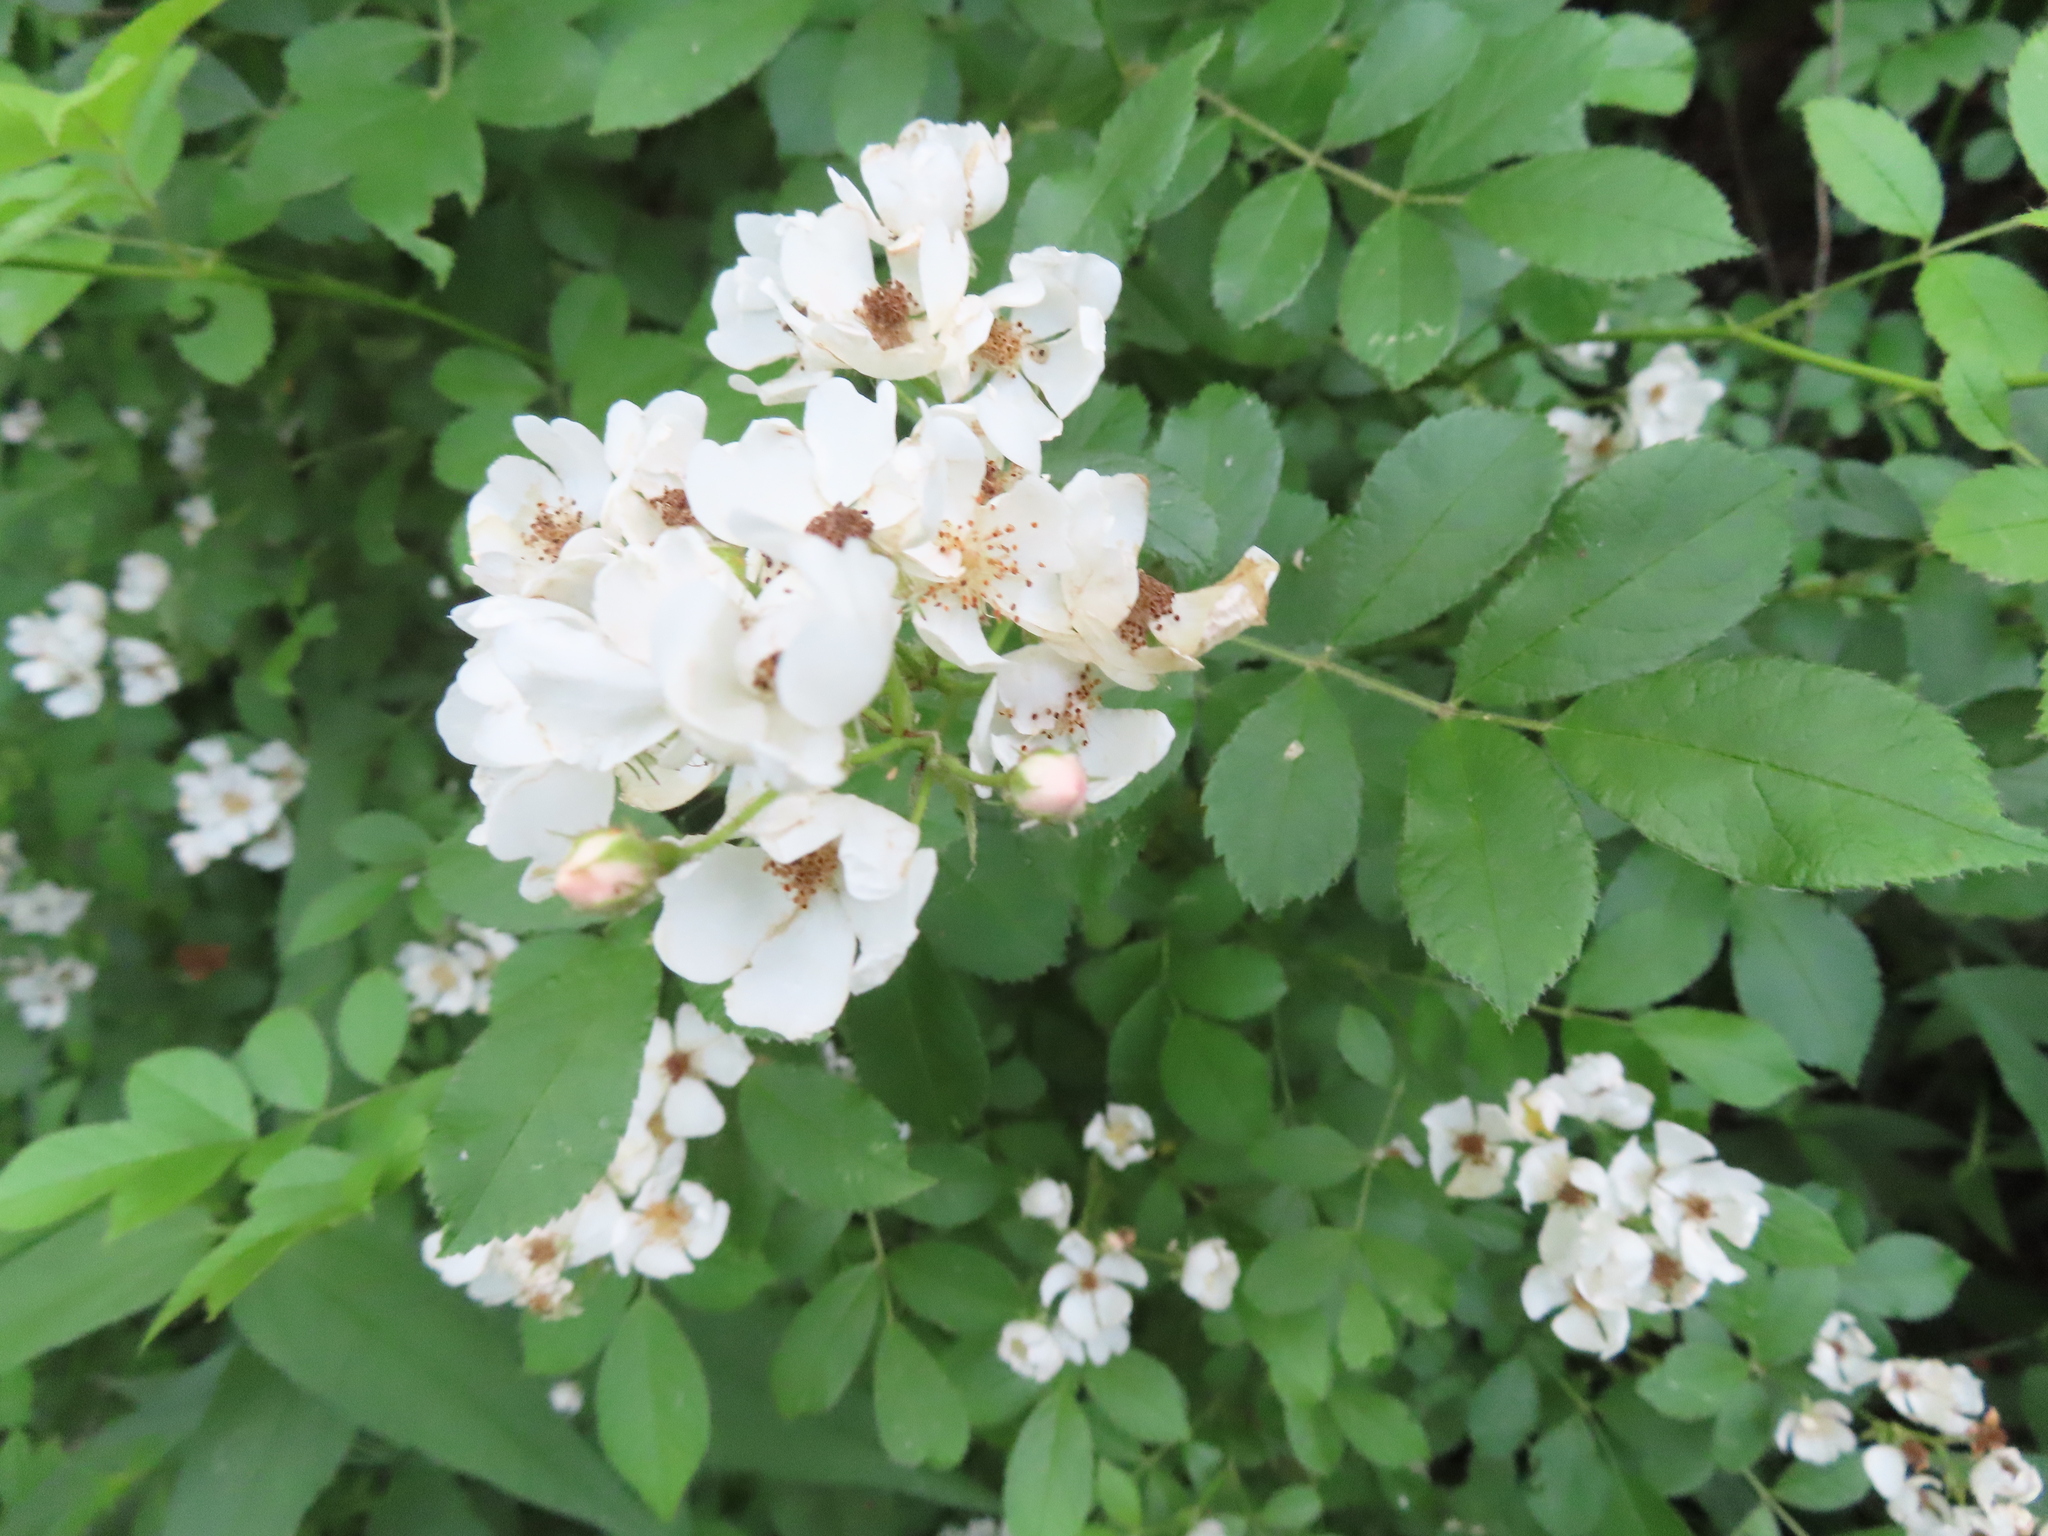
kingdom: Plantae
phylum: Tracheophyta
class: Magnoliopsida
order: Rosales
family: Rosaceae
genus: Rosa
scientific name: Rosa multiflora
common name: Multiflora rose
